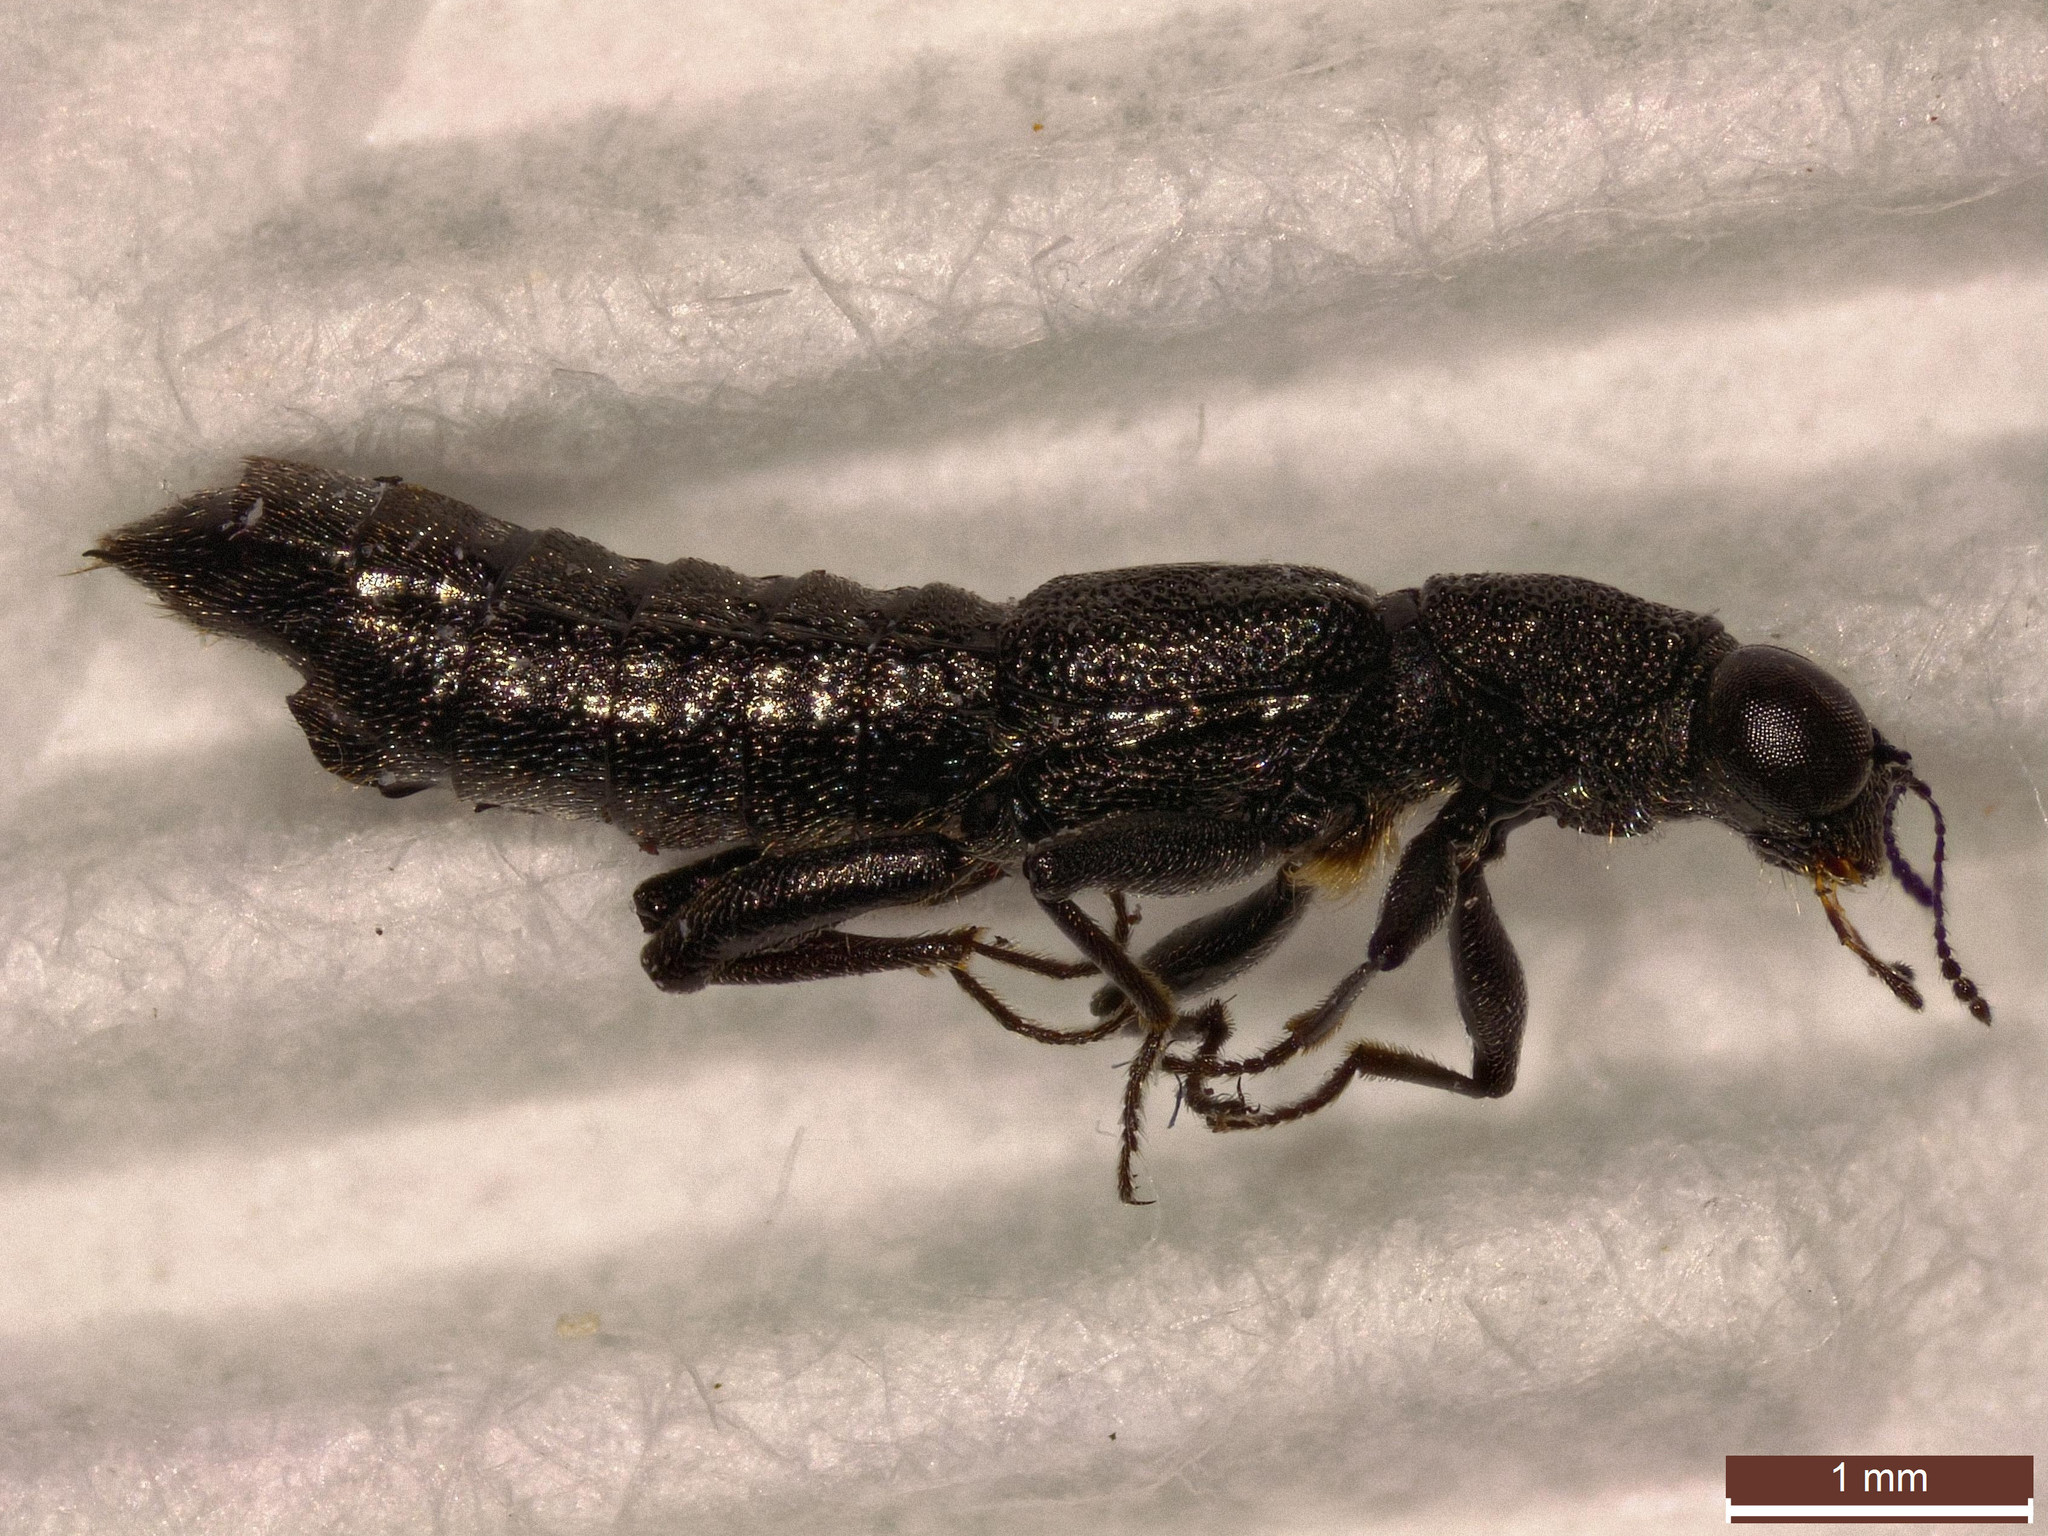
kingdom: Animalia
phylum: Arthropoda
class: Insecta
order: Coleoptera
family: Staphylinidae
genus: Stenus
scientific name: Stenus juno
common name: Rove beetle
